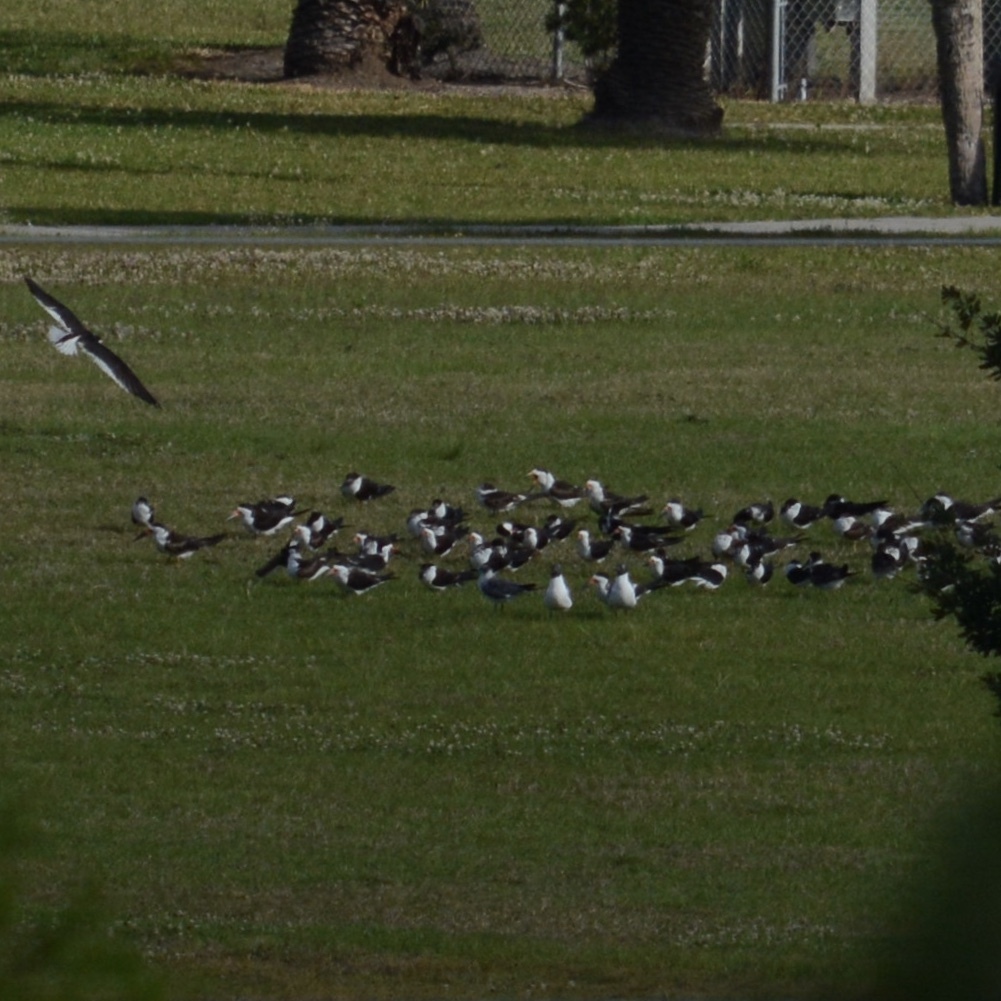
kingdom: Animalia
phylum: Chordata
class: Aves
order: Charadriiformes
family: Laridae
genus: Rynchops
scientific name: Rynchops niger
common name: Black skimmer
